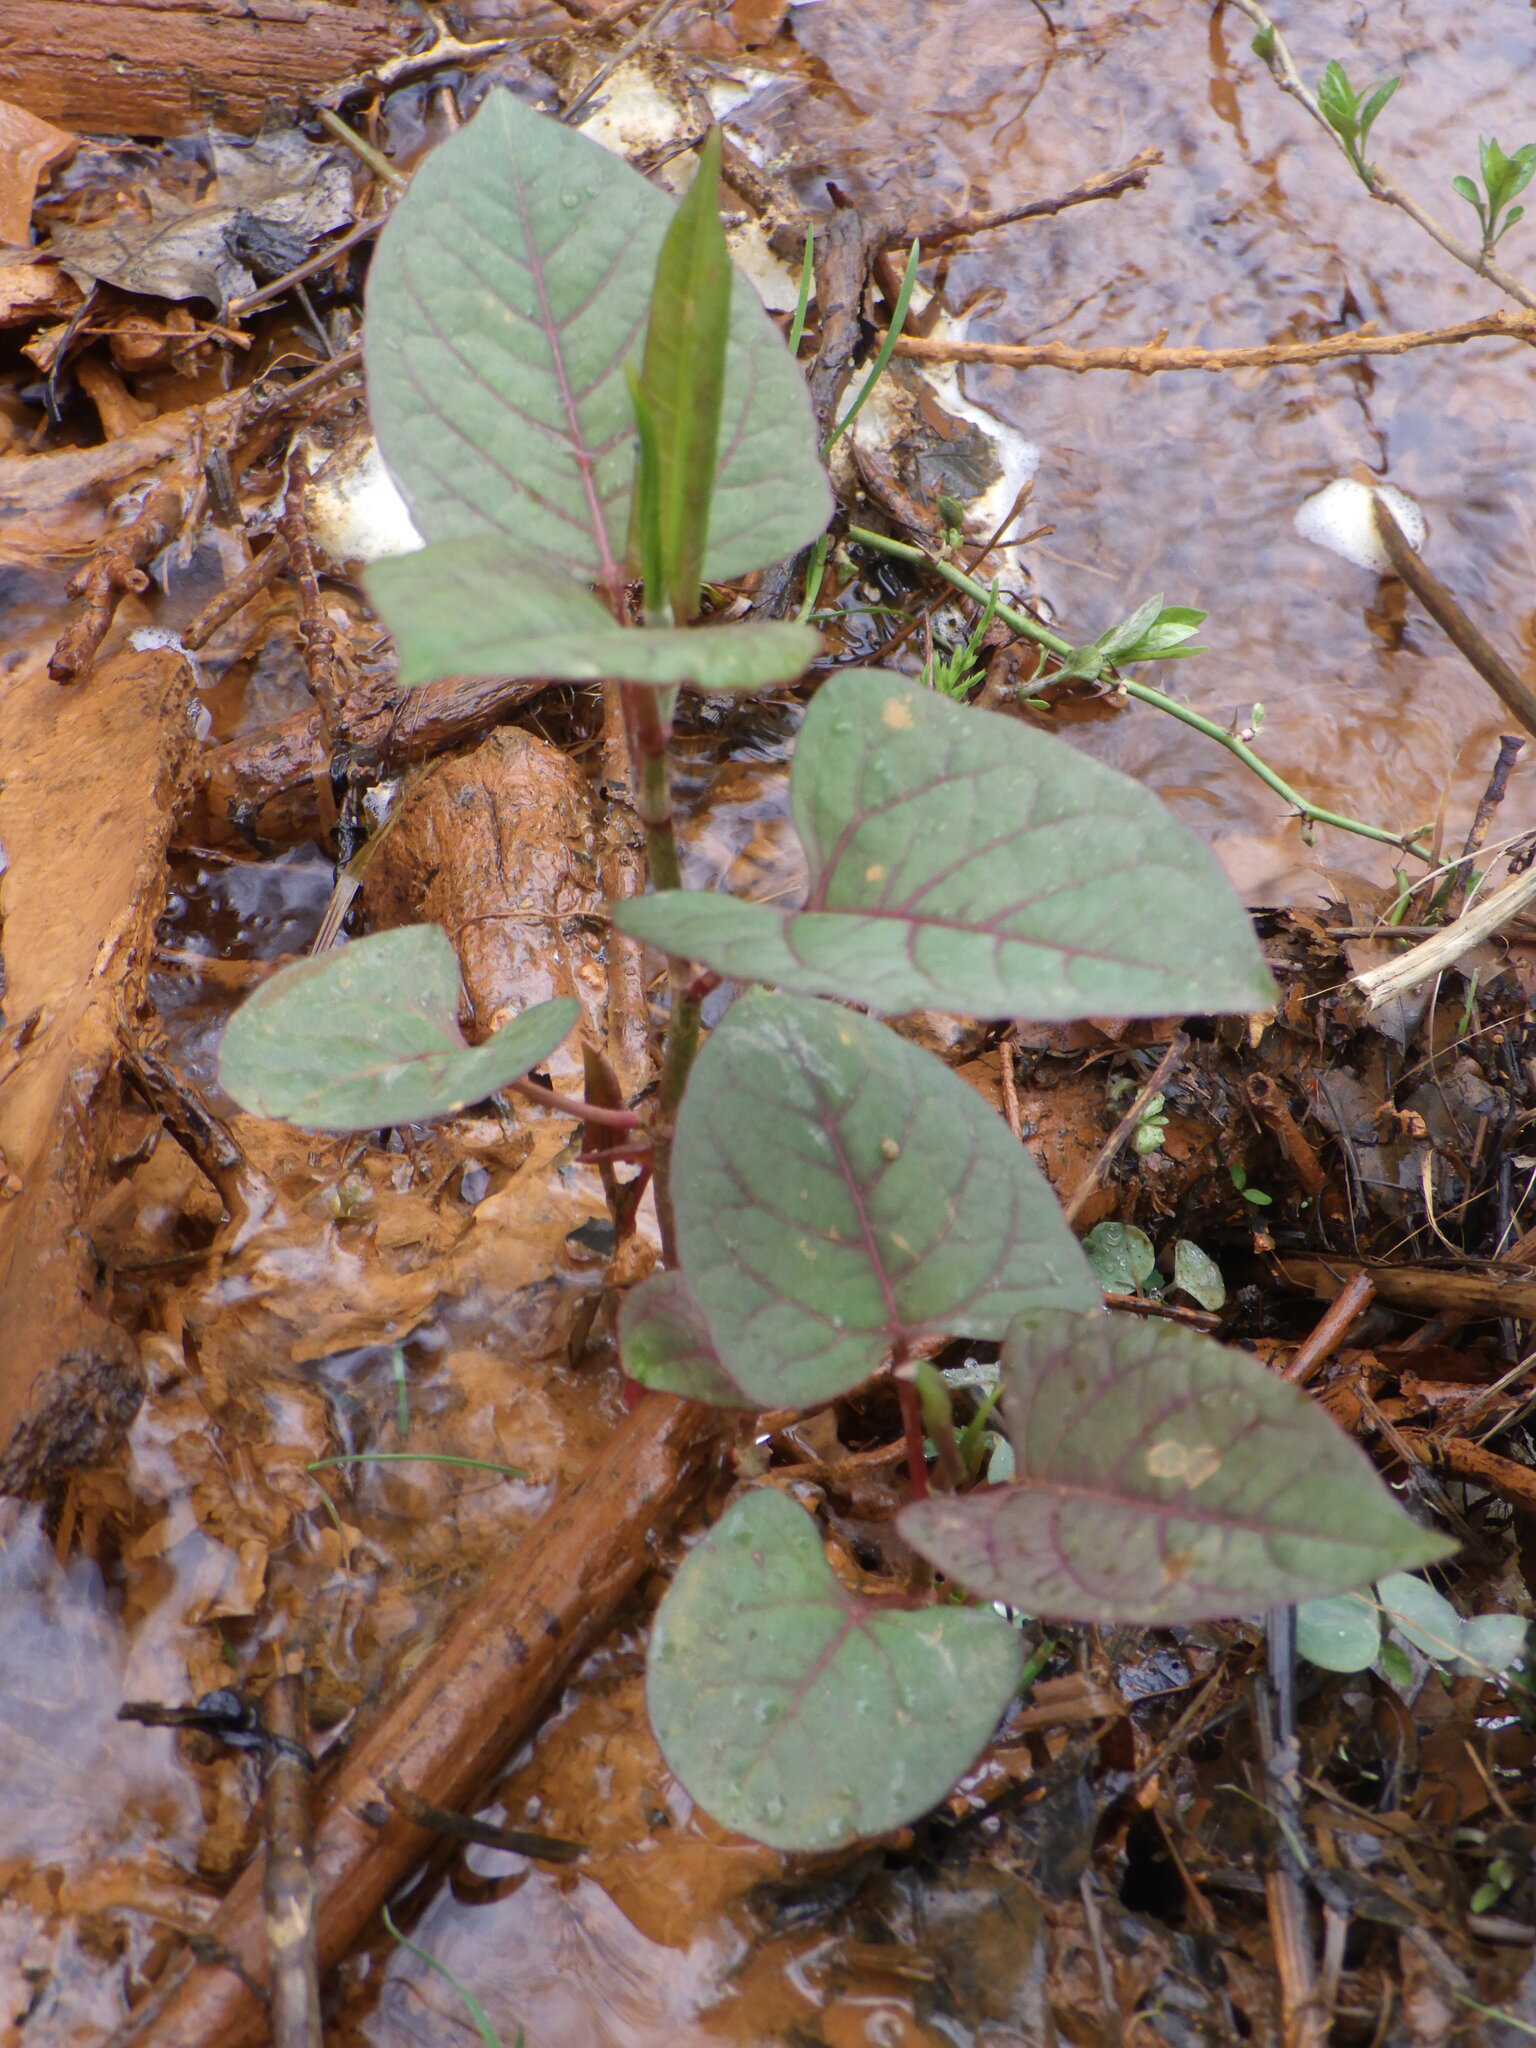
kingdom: Plantae
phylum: Tracheophyta
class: Magnoliopsida
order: Caryophyllales
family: Polygonaceae
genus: Reynoutria
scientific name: Reynoutria japonica
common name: Japanese knotweed
